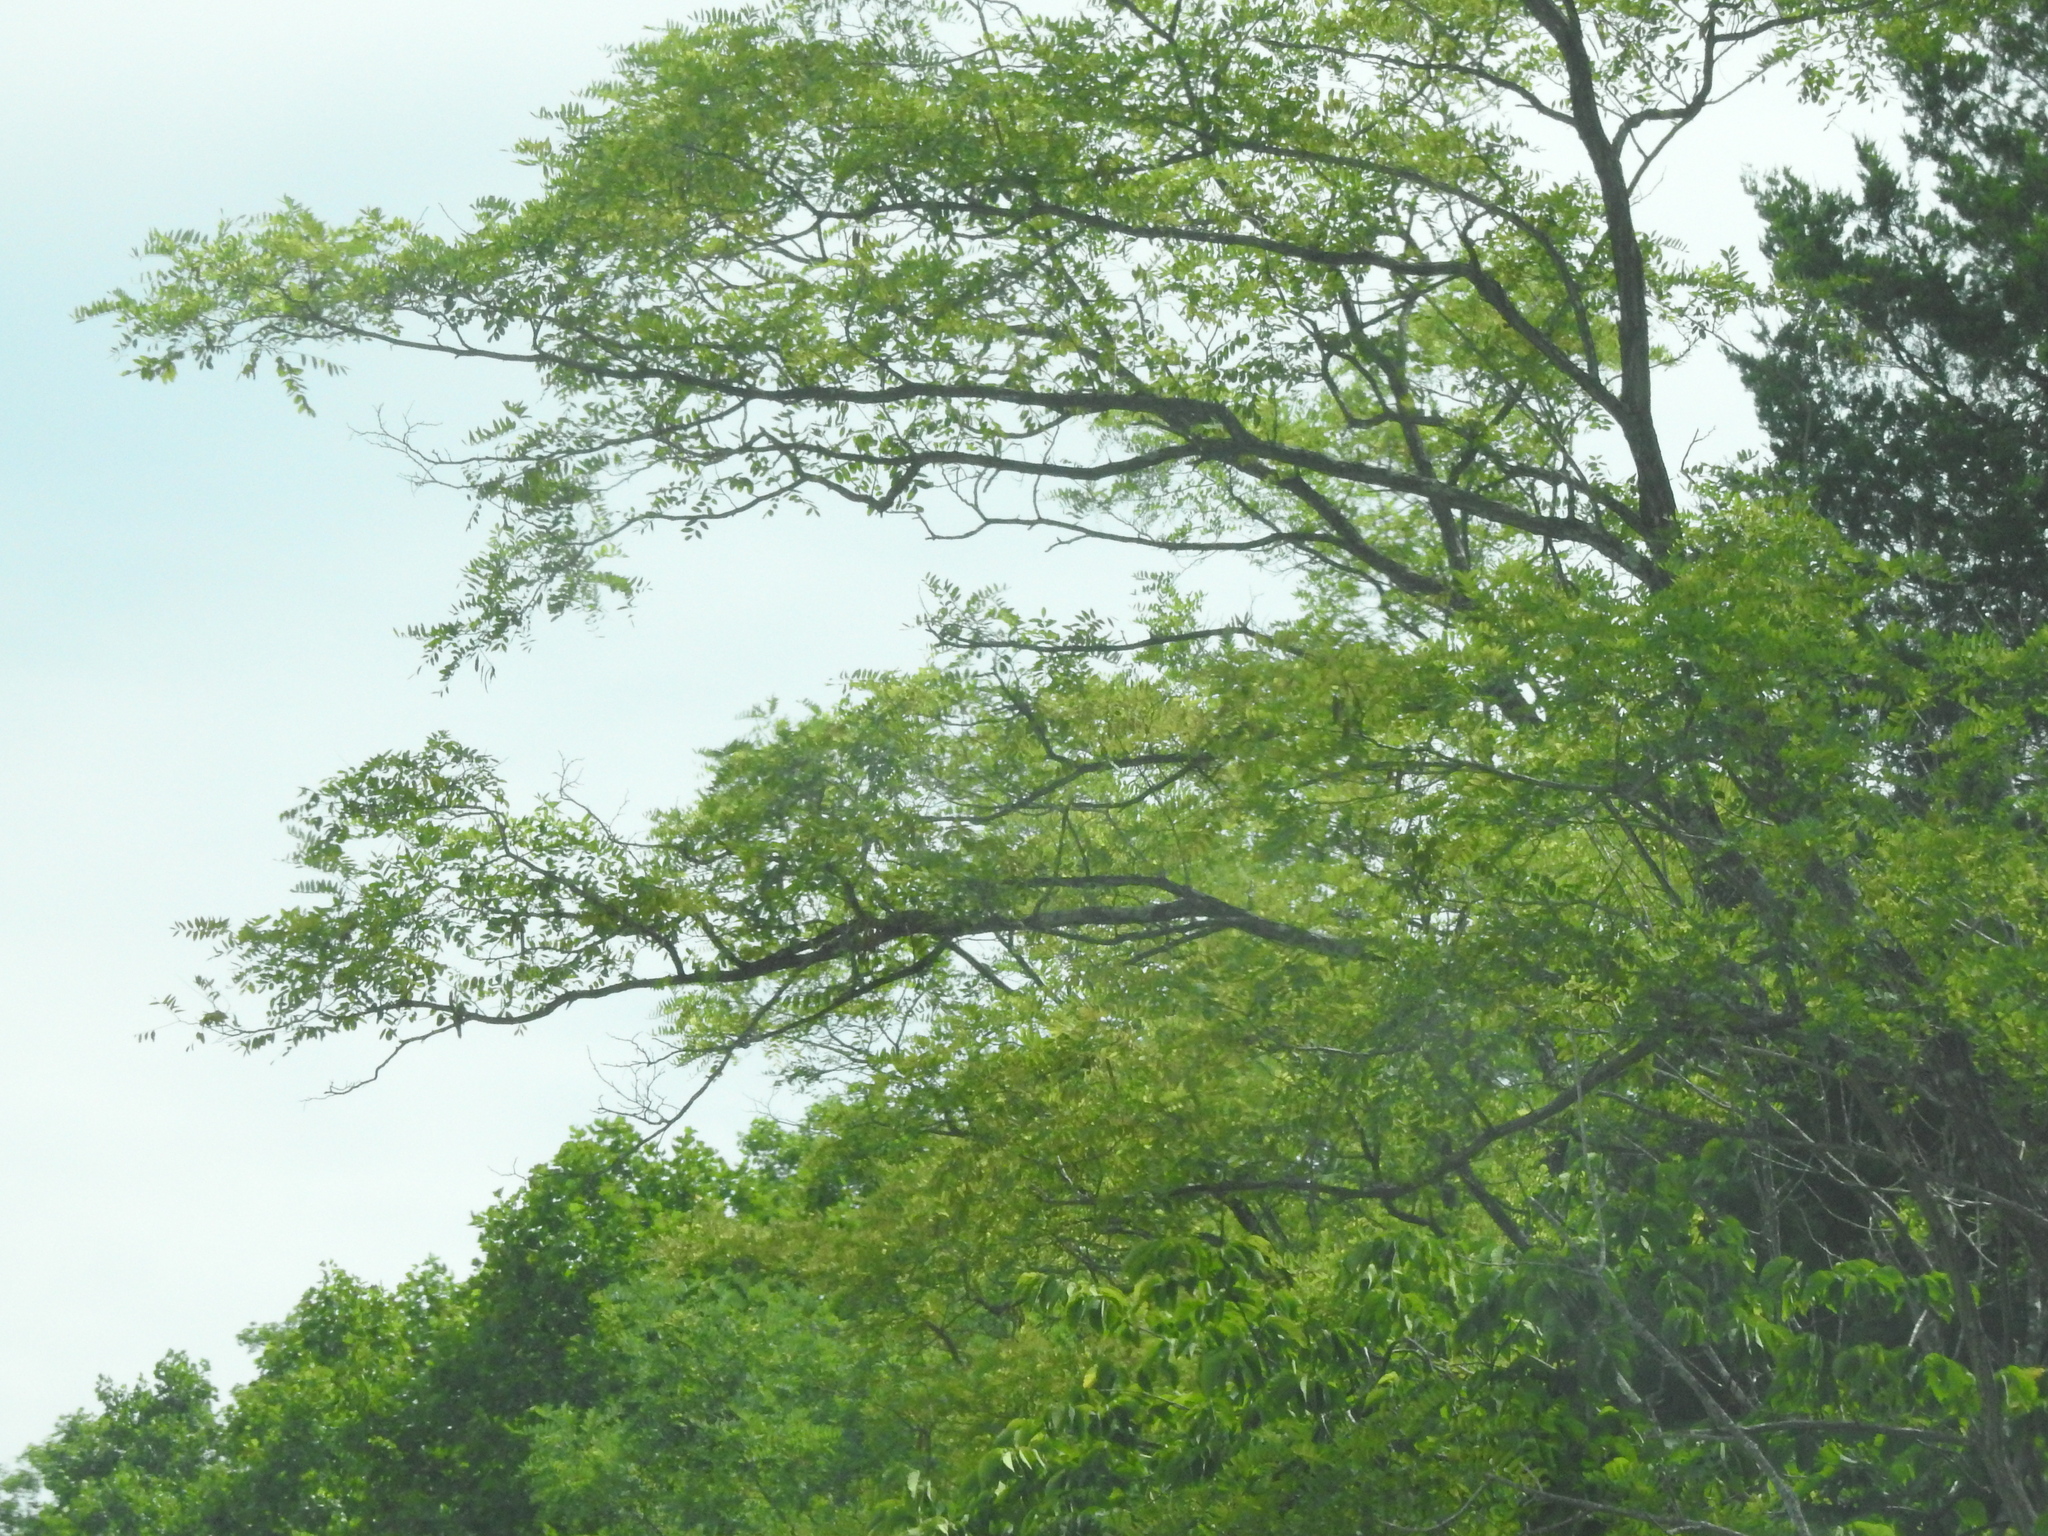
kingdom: Plantae
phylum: Tracheophyta
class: Magnoliopsida
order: Fagales
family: Juglandaceae
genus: Juglans
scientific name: Juglans
